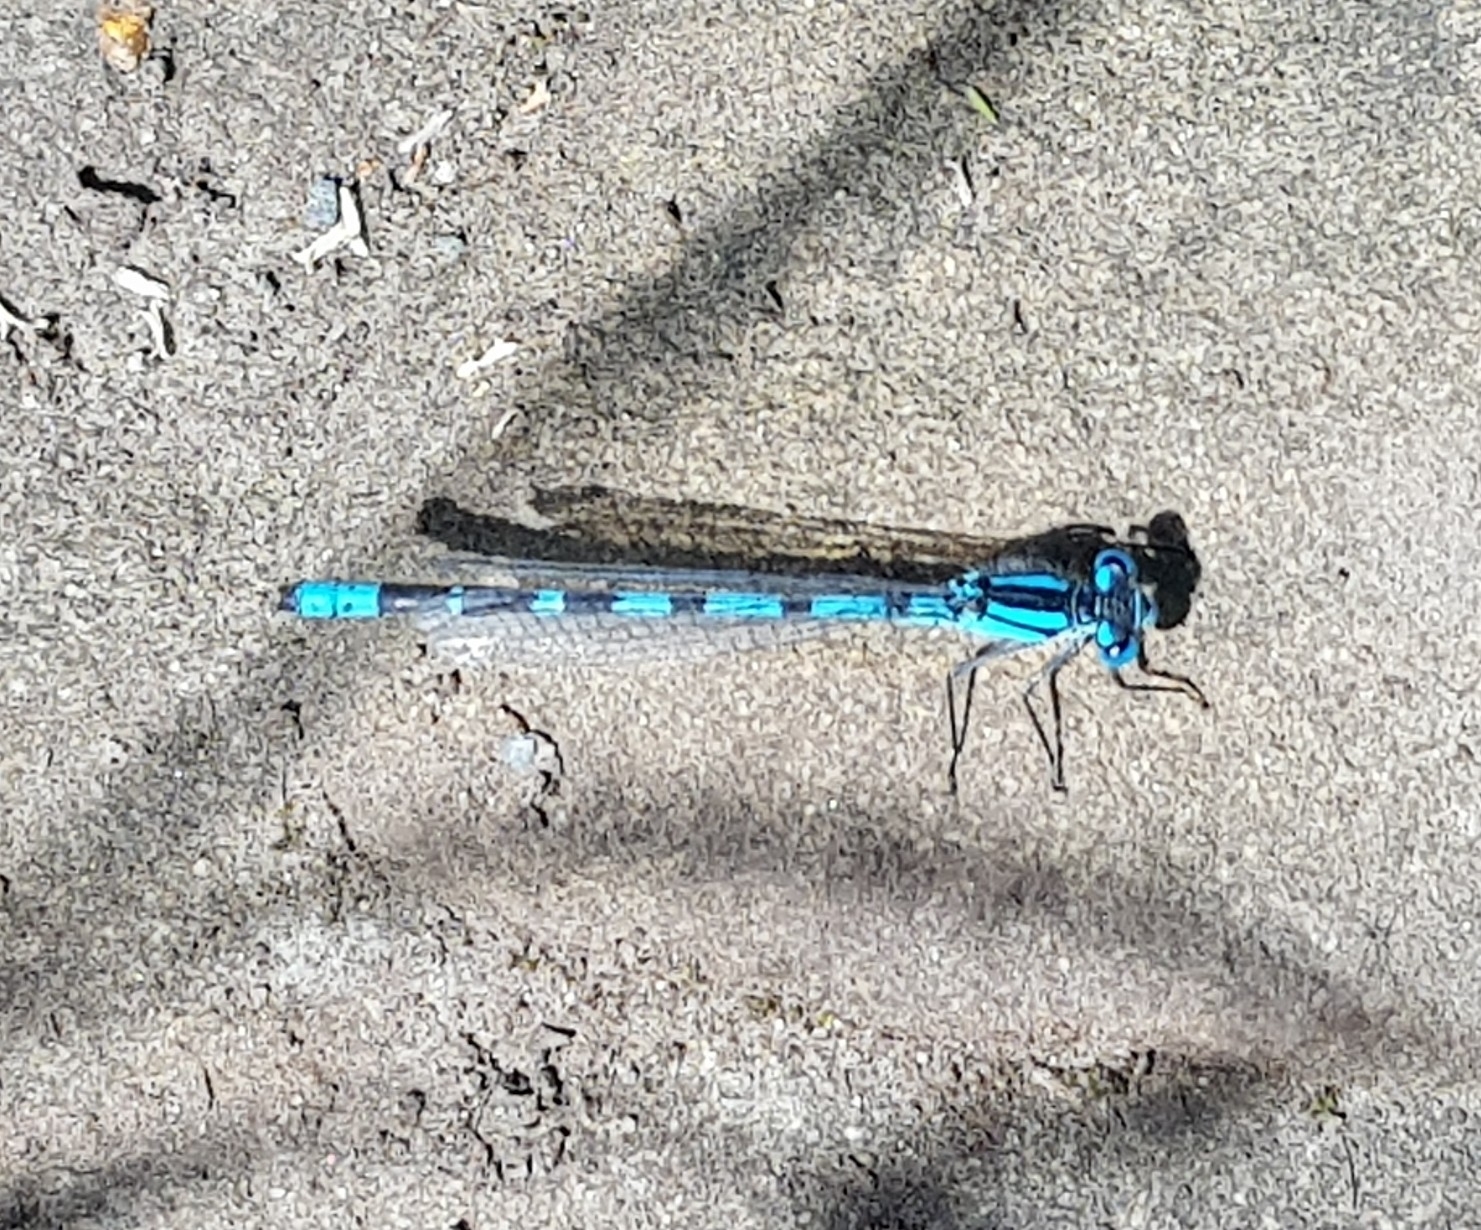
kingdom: Animalia
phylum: Arthropoda
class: Insecta
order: Odonata
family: Coenagrionidae
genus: Enallagma
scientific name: Enallagma cyathigerum
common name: Common blue damselfly
